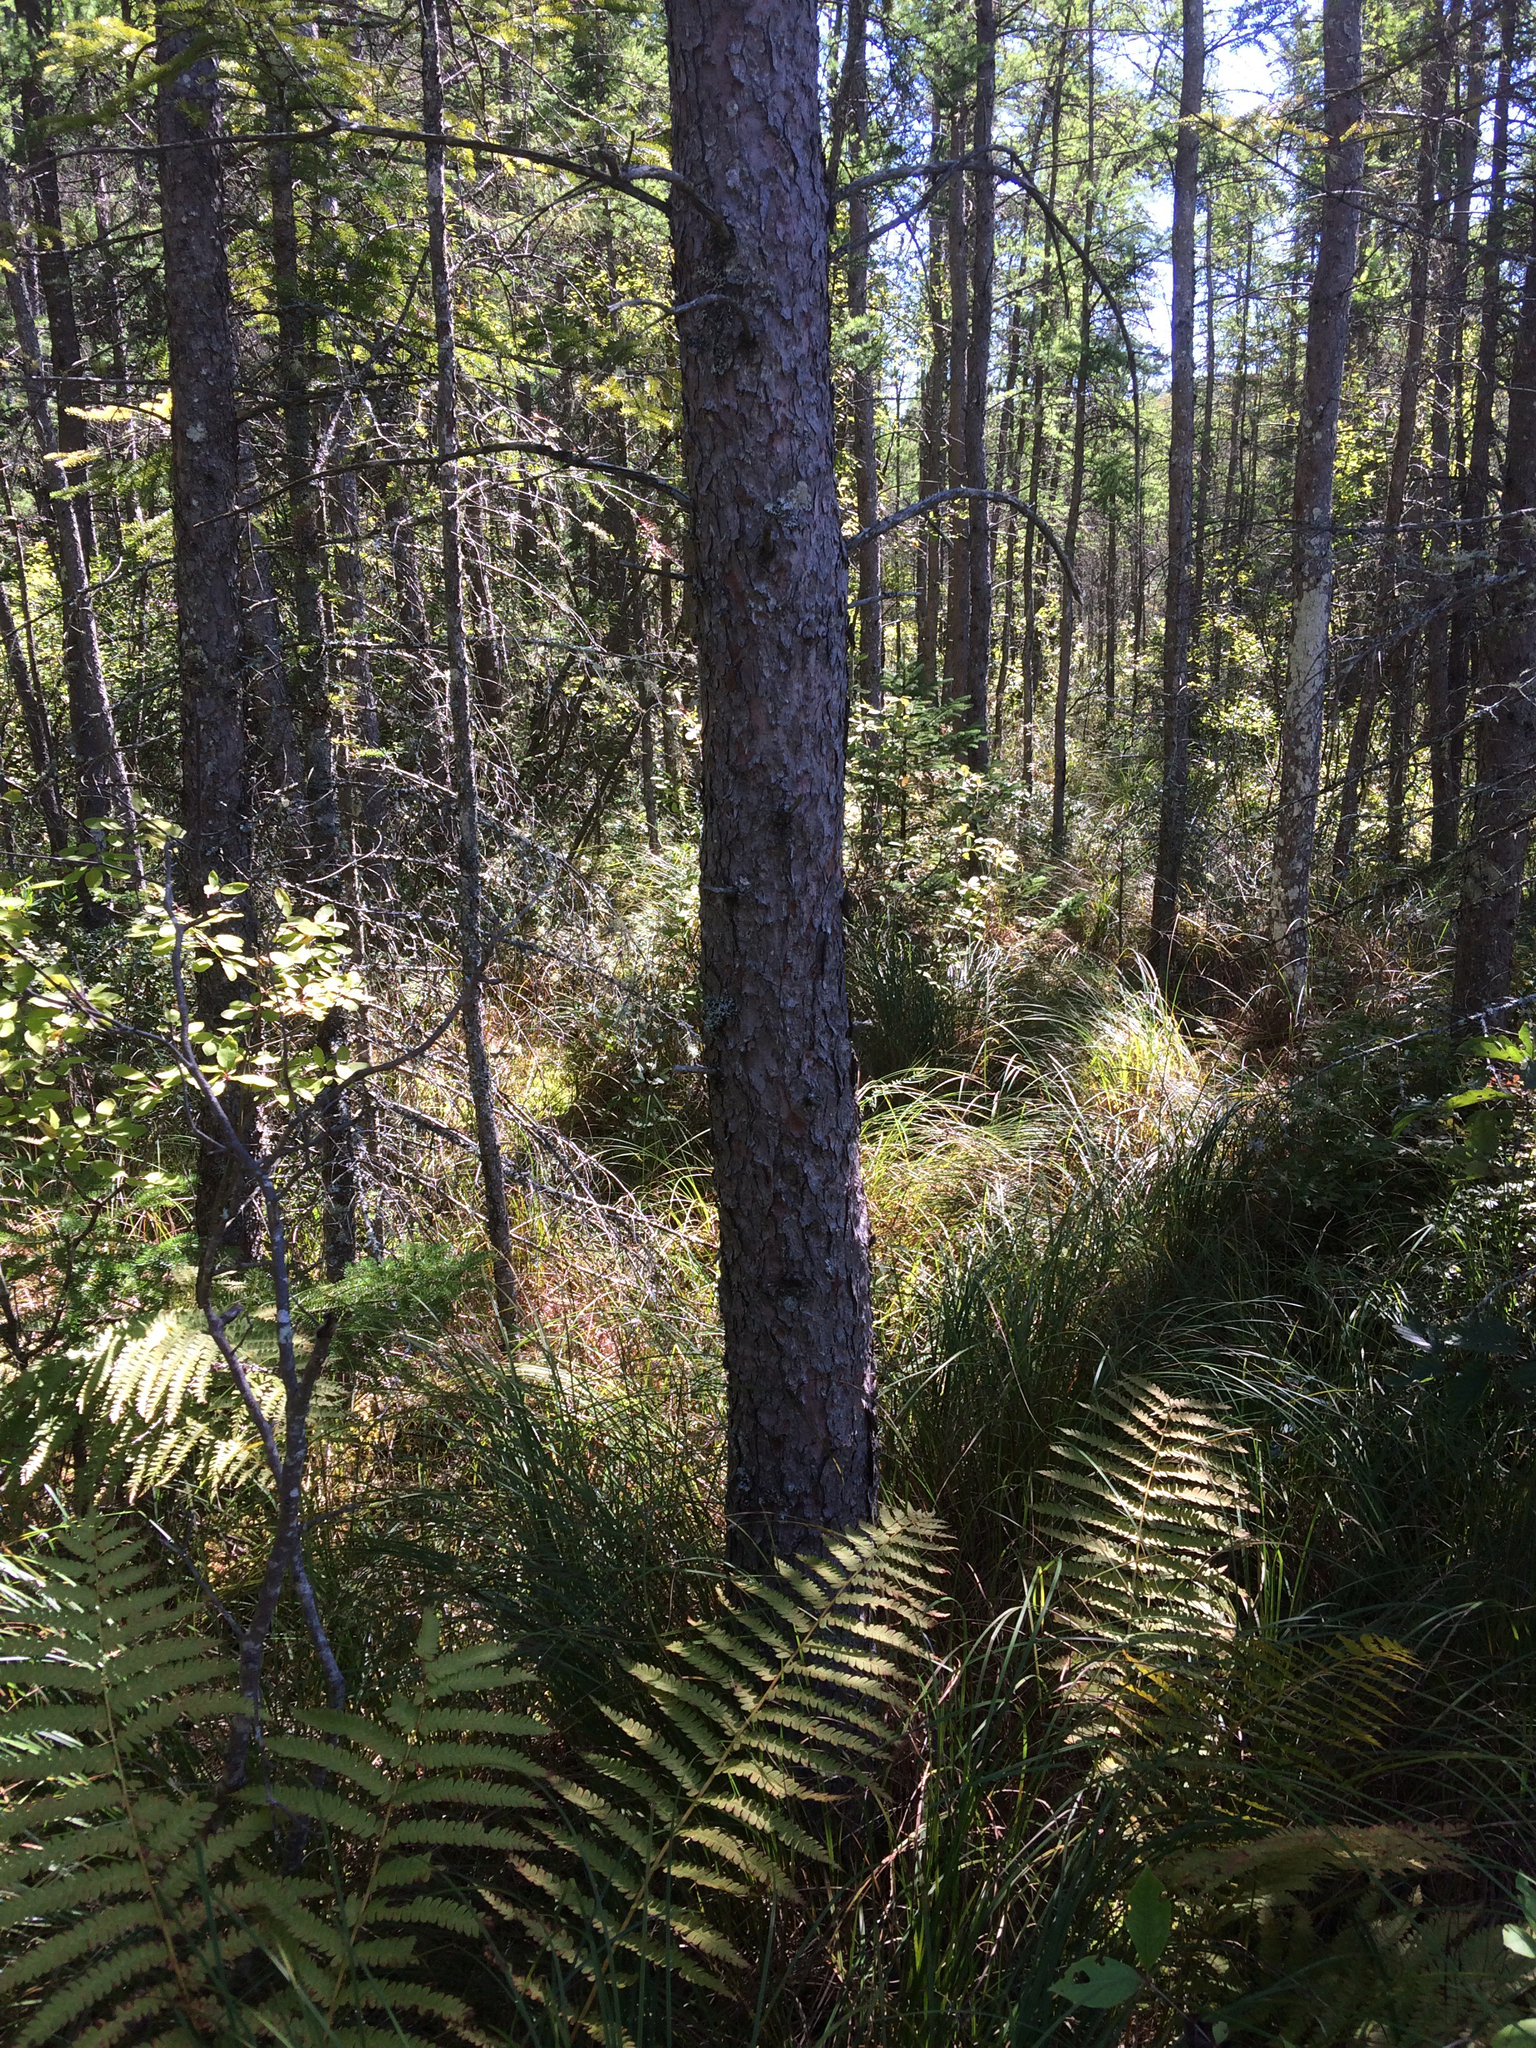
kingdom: Plantae
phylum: Tracheophyta
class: Pinopsida
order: Pinales
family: Pinaceae
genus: Larix
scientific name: Larix laricina
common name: American larch
